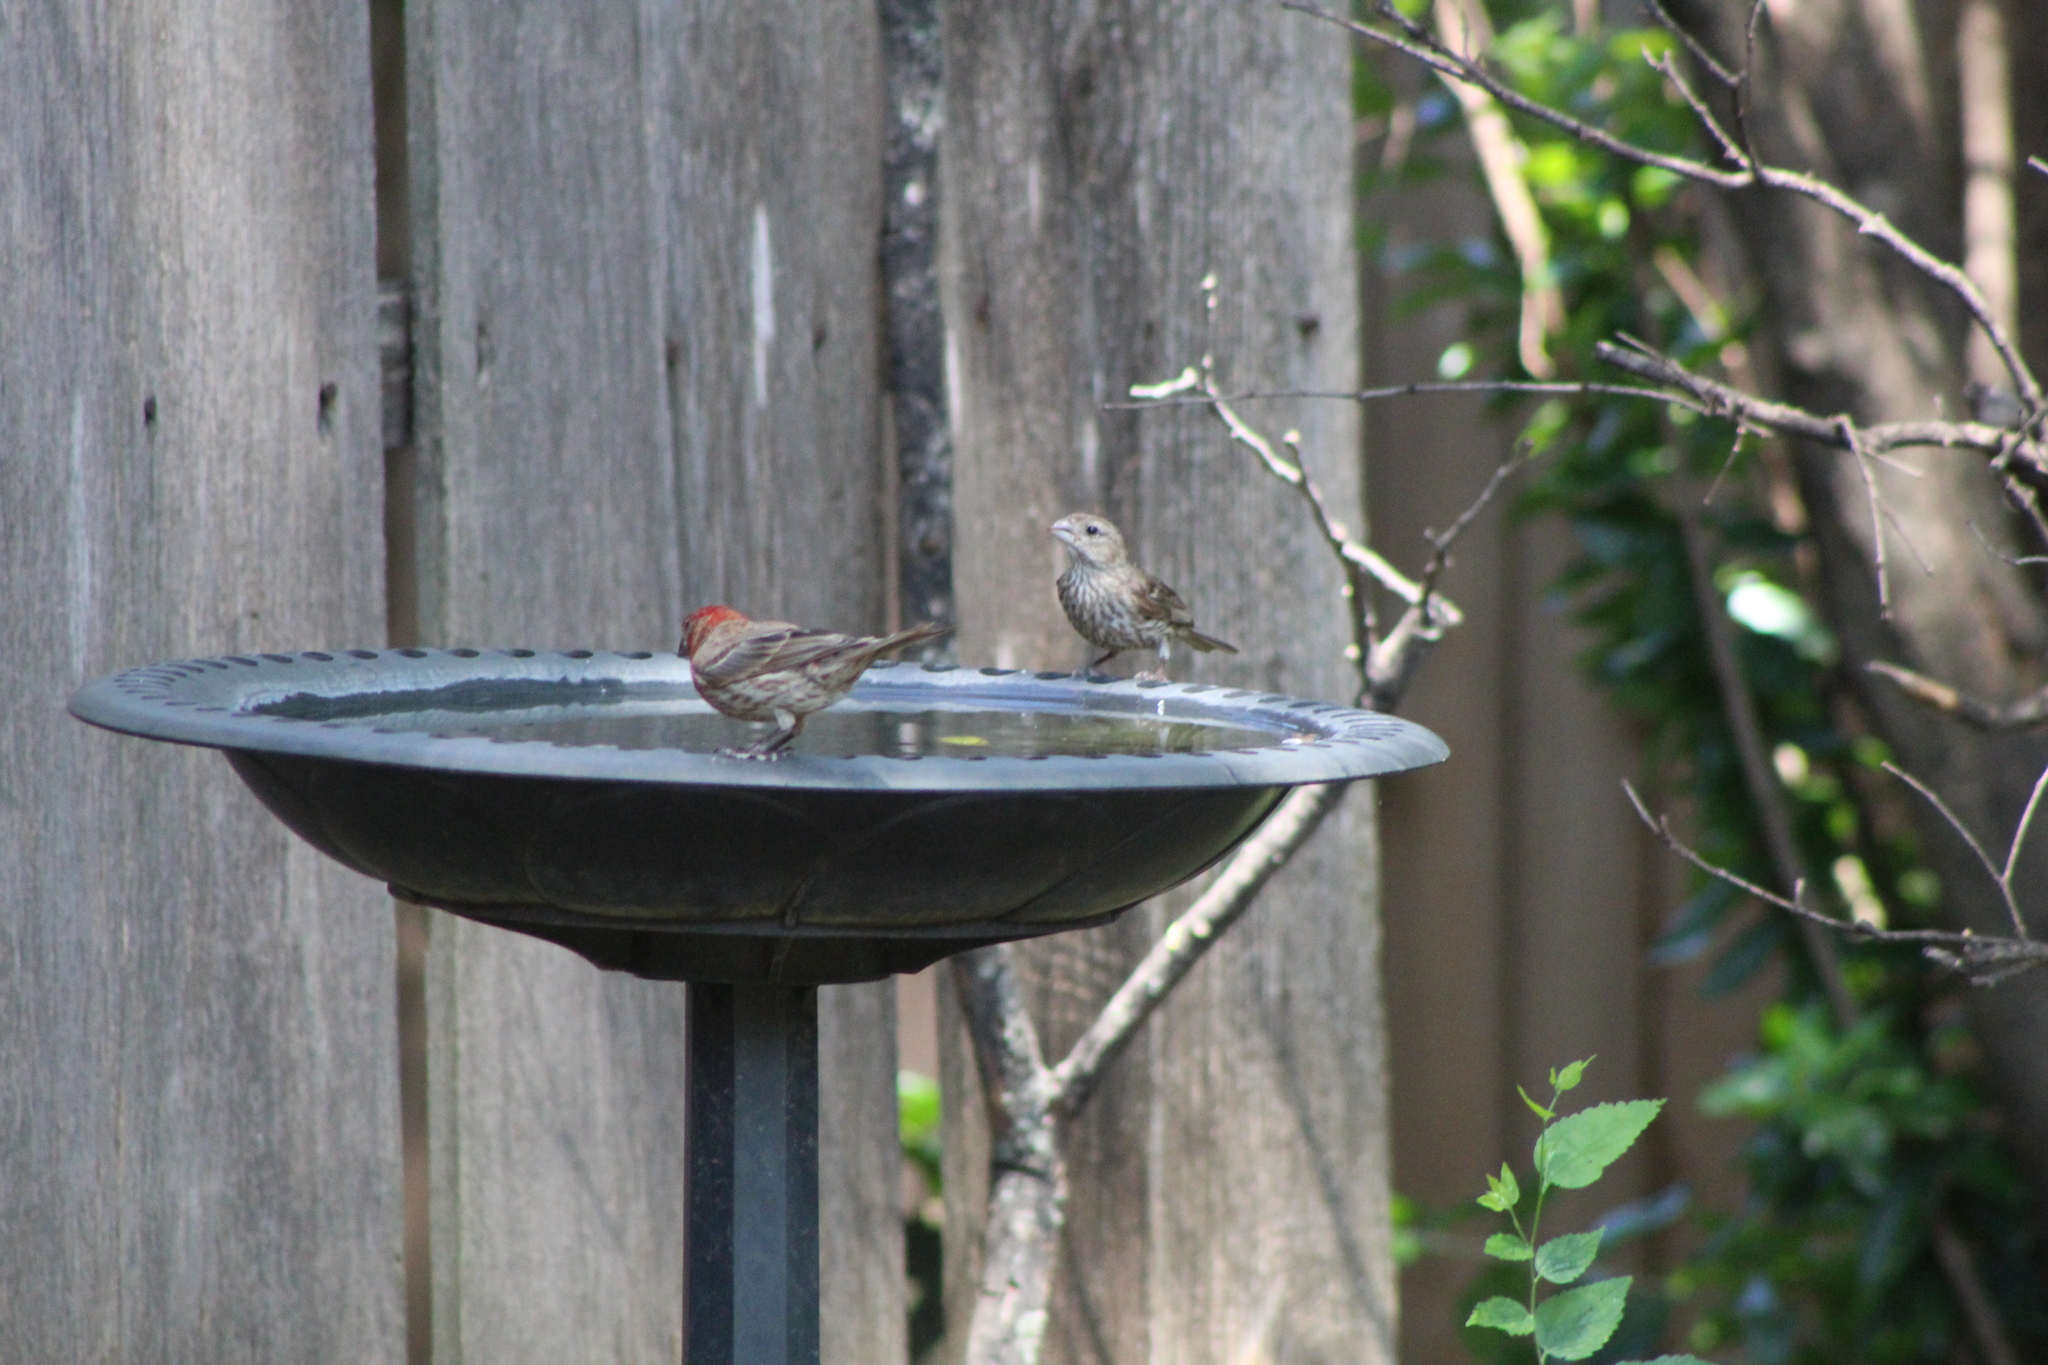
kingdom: Animalia
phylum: Chordata
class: Aves
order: Passeriformes
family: Fringillidae
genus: Haemorhous
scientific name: Haemorhous mexicanus
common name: House finch
